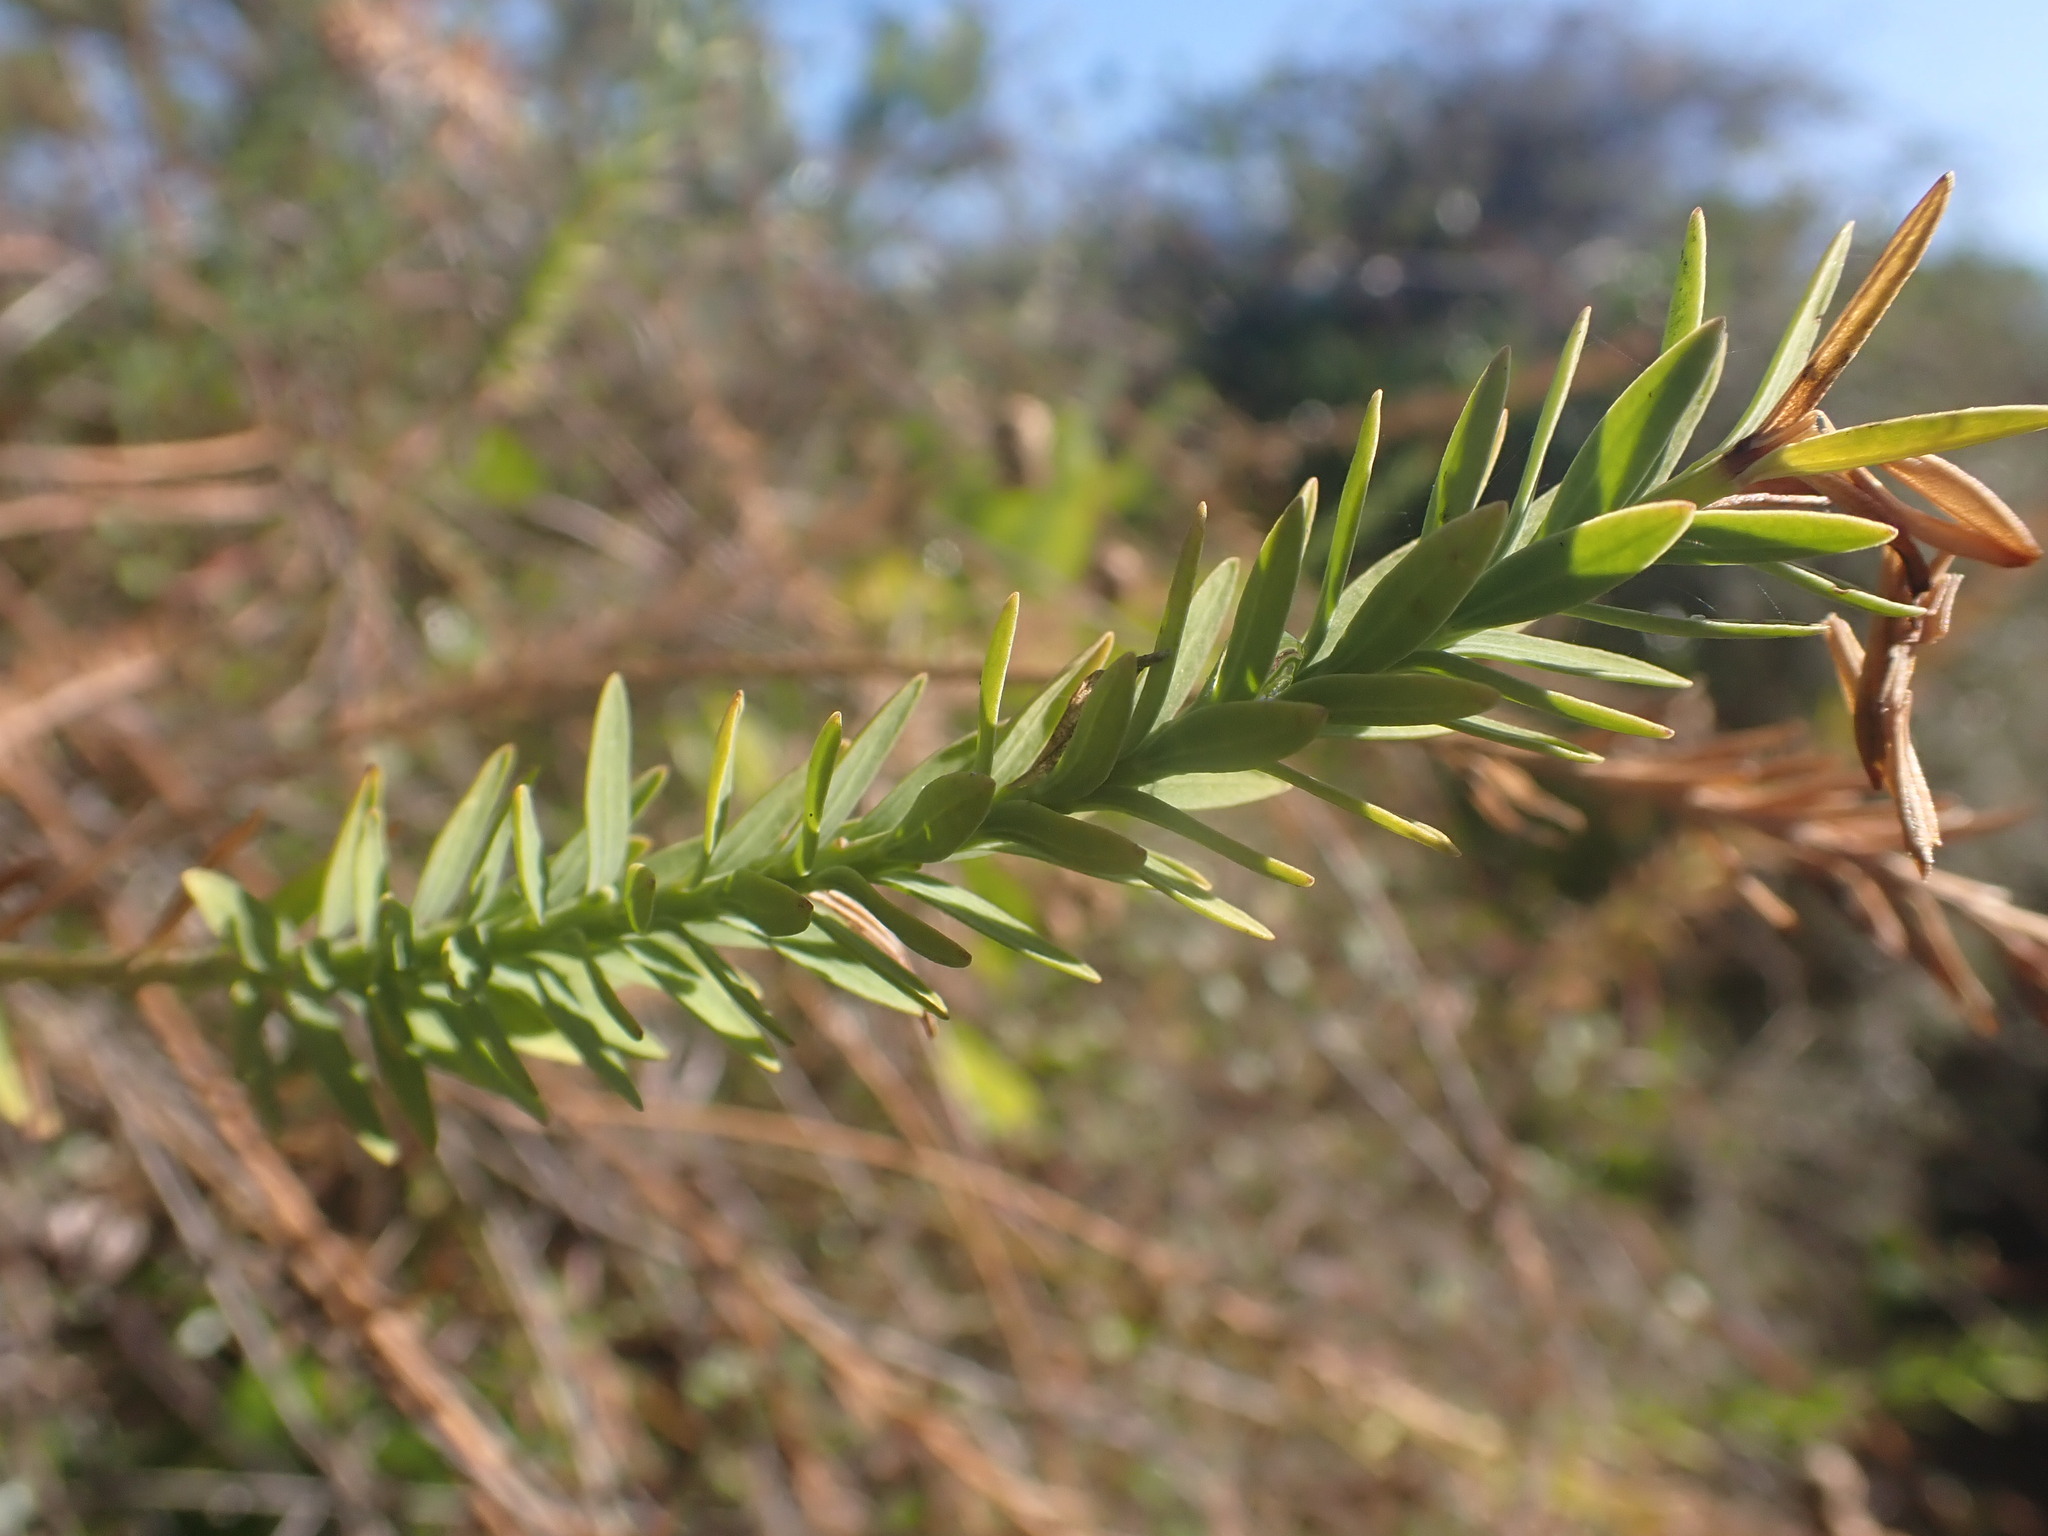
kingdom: Plantae
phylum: Tracheophyta
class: Magnoliopsida
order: Malpighiales
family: Linaceae
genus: Linum
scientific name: Linum monogynum
